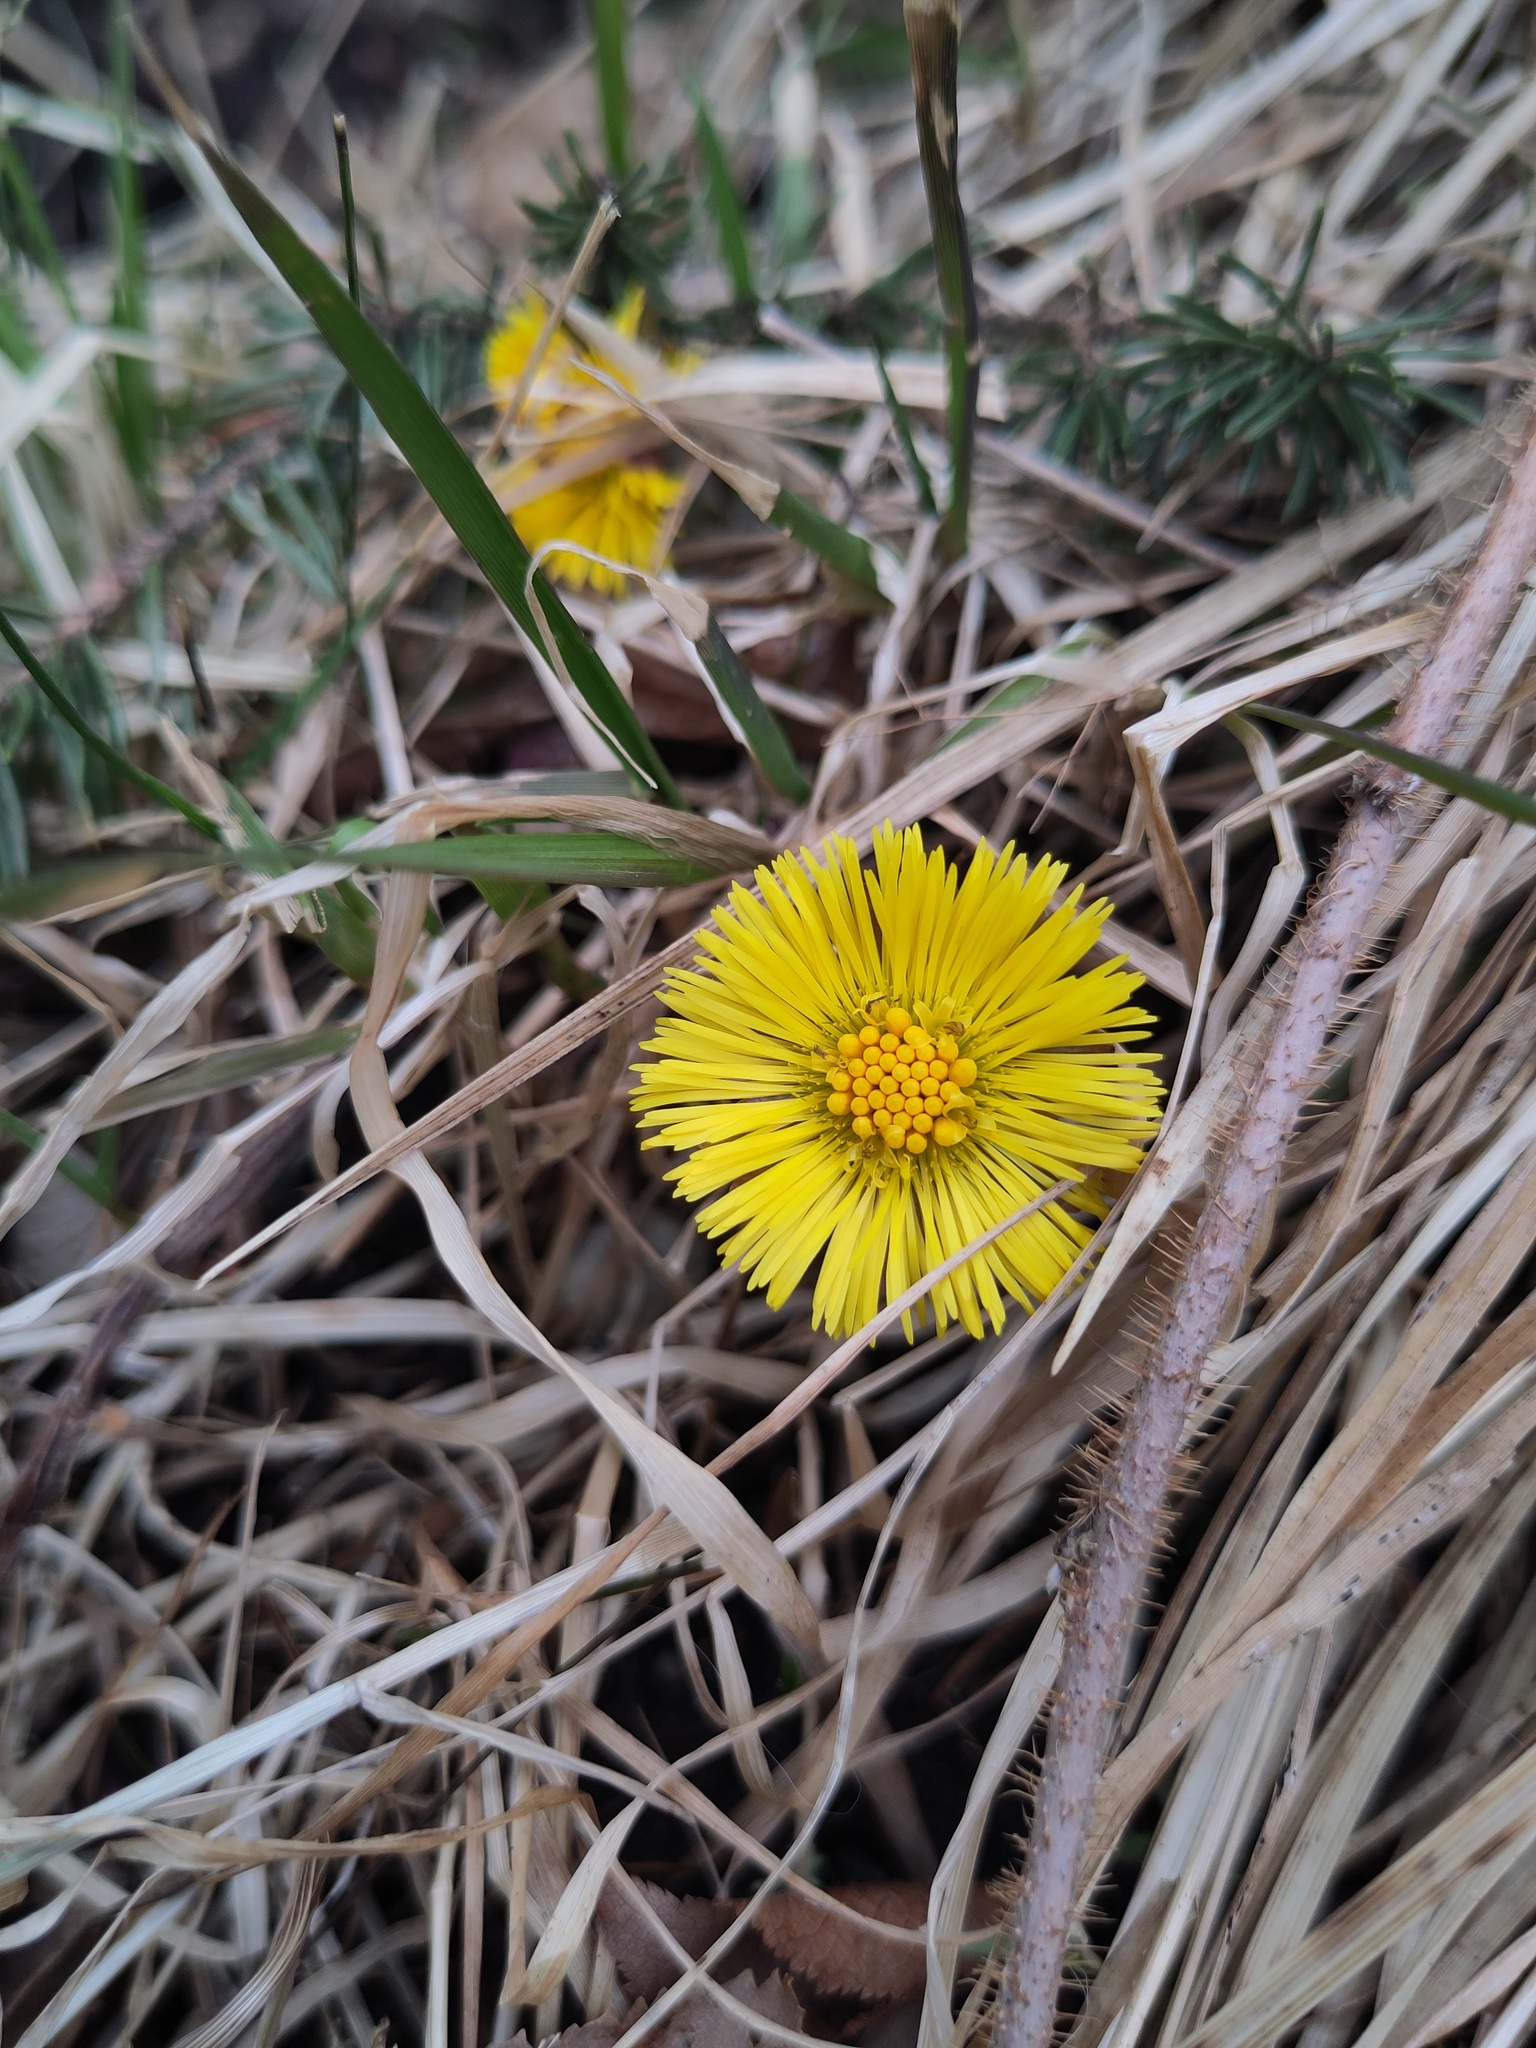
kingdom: Plantae
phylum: Tracheophyta
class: Magnoliopsida
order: Asterales
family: Asteraceae
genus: Tussilago
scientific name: Tussilago farfara
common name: Coltsfoot
